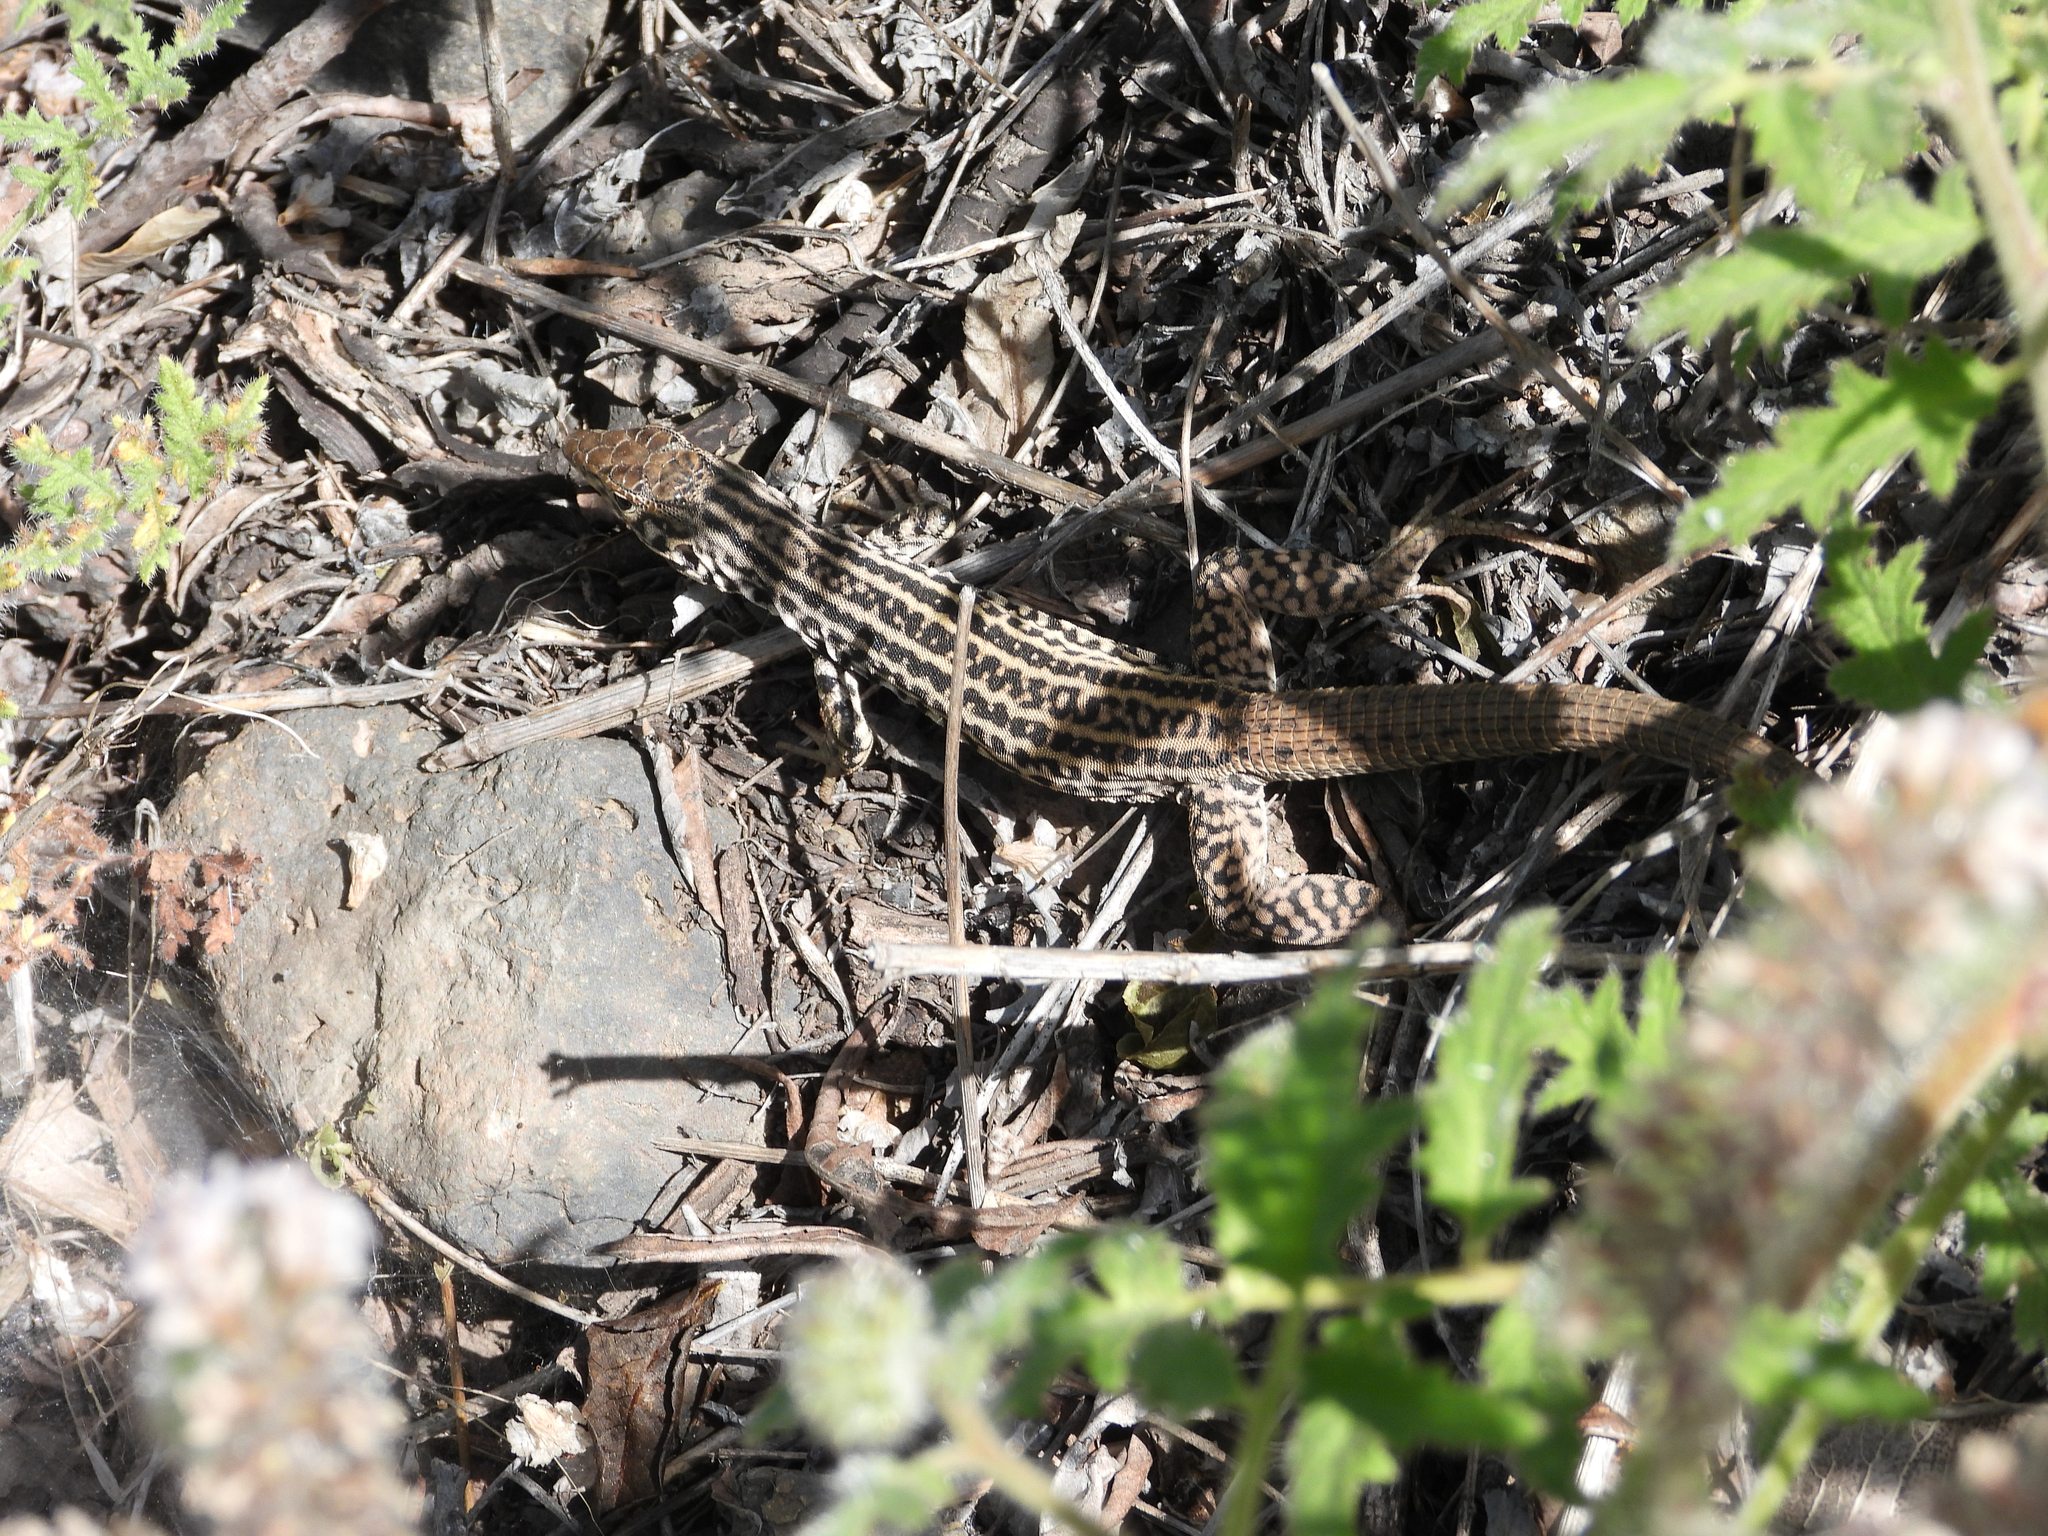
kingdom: Animalia
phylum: Chordata
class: Squamata
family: Teiidae
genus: Aspidoscelis
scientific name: Aspidoscelis tigris
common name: Tiger whiptail
